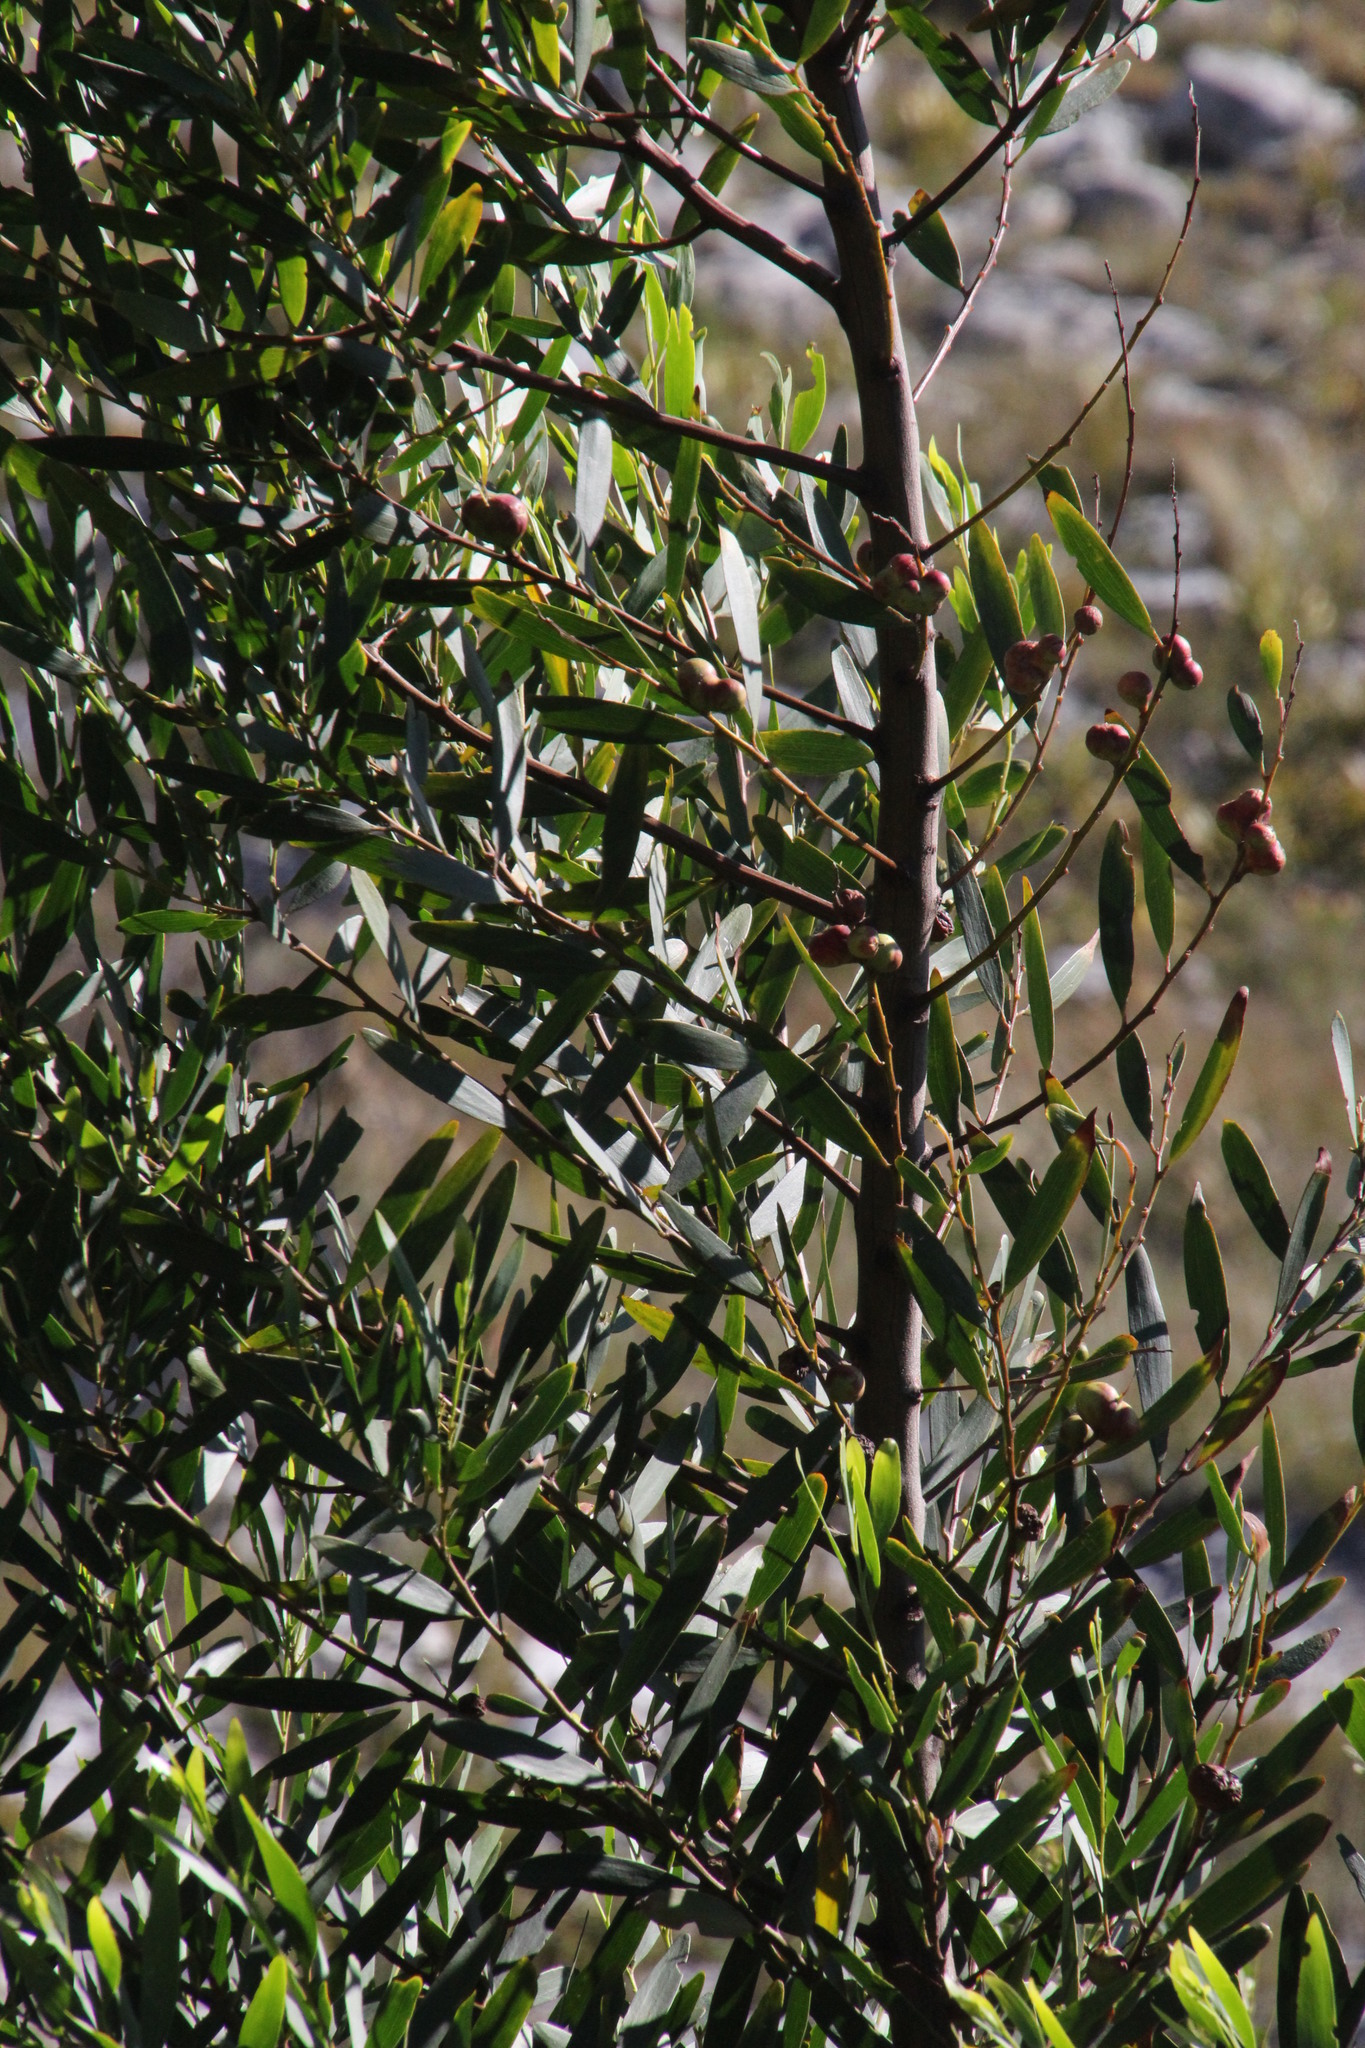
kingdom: Plantae
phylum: Tracheophyta
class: Magnoliopsida
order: Fabales
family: Fabaceae
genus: Acacia
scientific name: Acacia longifolia
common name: Sydney golden wattle
